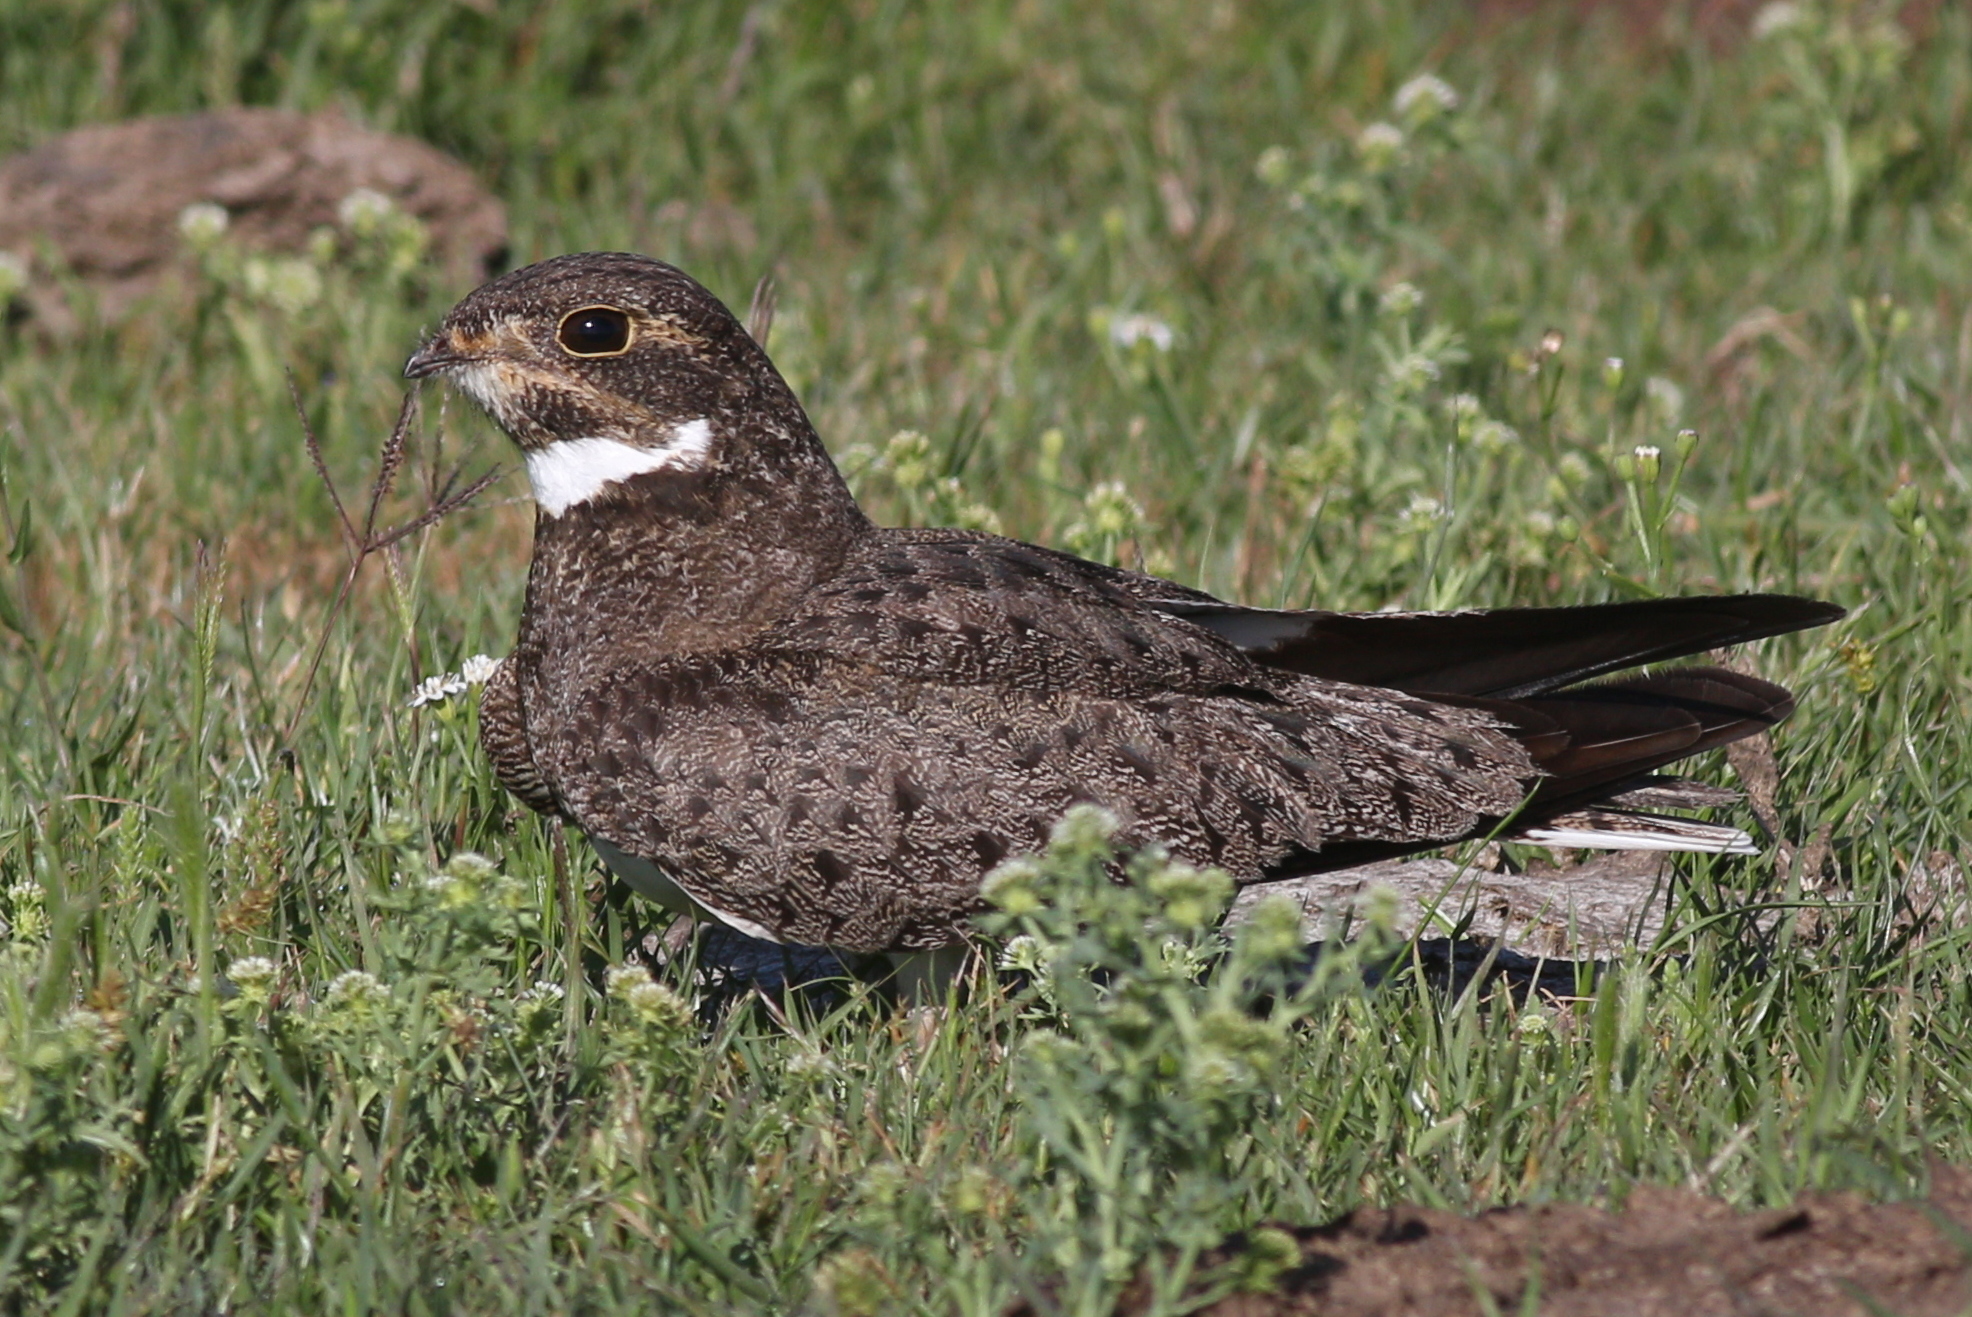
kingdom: Animalia
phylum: Chordata
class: Aves
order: Caprimulgiformes
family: Caprimulgidae
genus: Chordeiles
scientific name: Chordeiles nacunda
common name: Nacunda nighthawk
